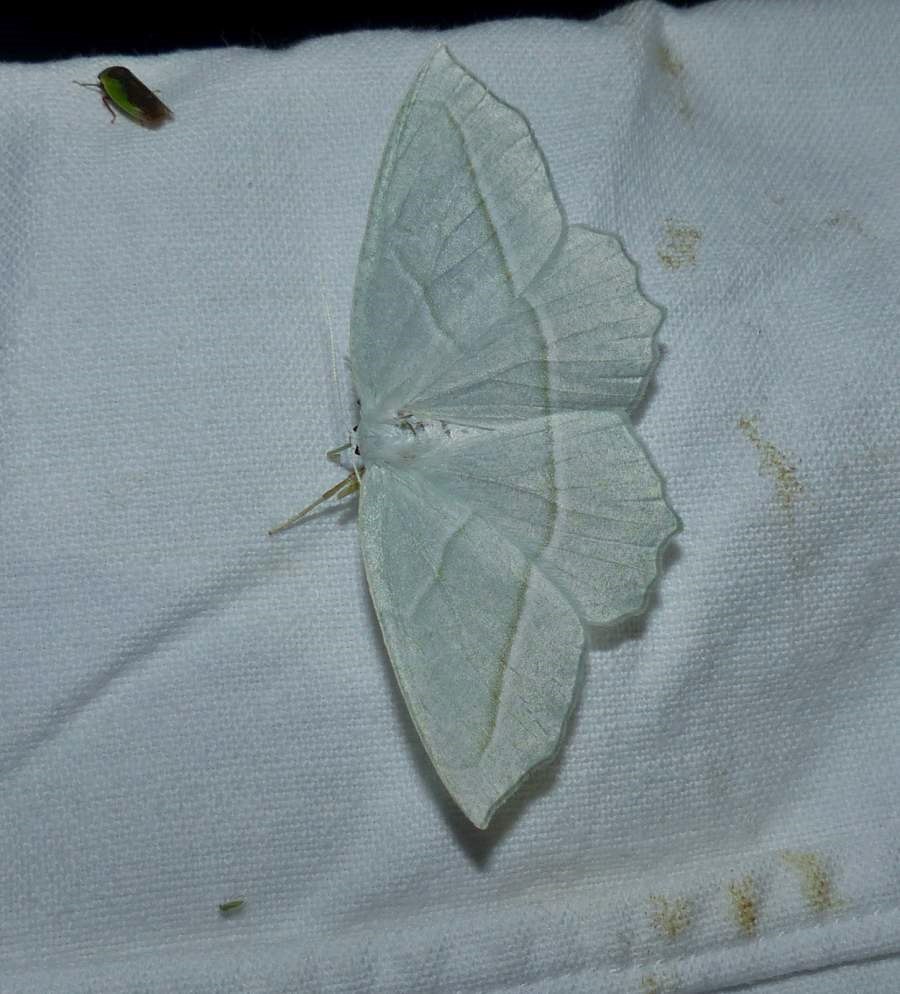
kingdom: Animalia
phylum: Arthropoda
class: Insecta
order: Lepidoptera
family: Geometridae
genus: Campaea
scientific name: Campaea perlata
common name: Fringed looper
